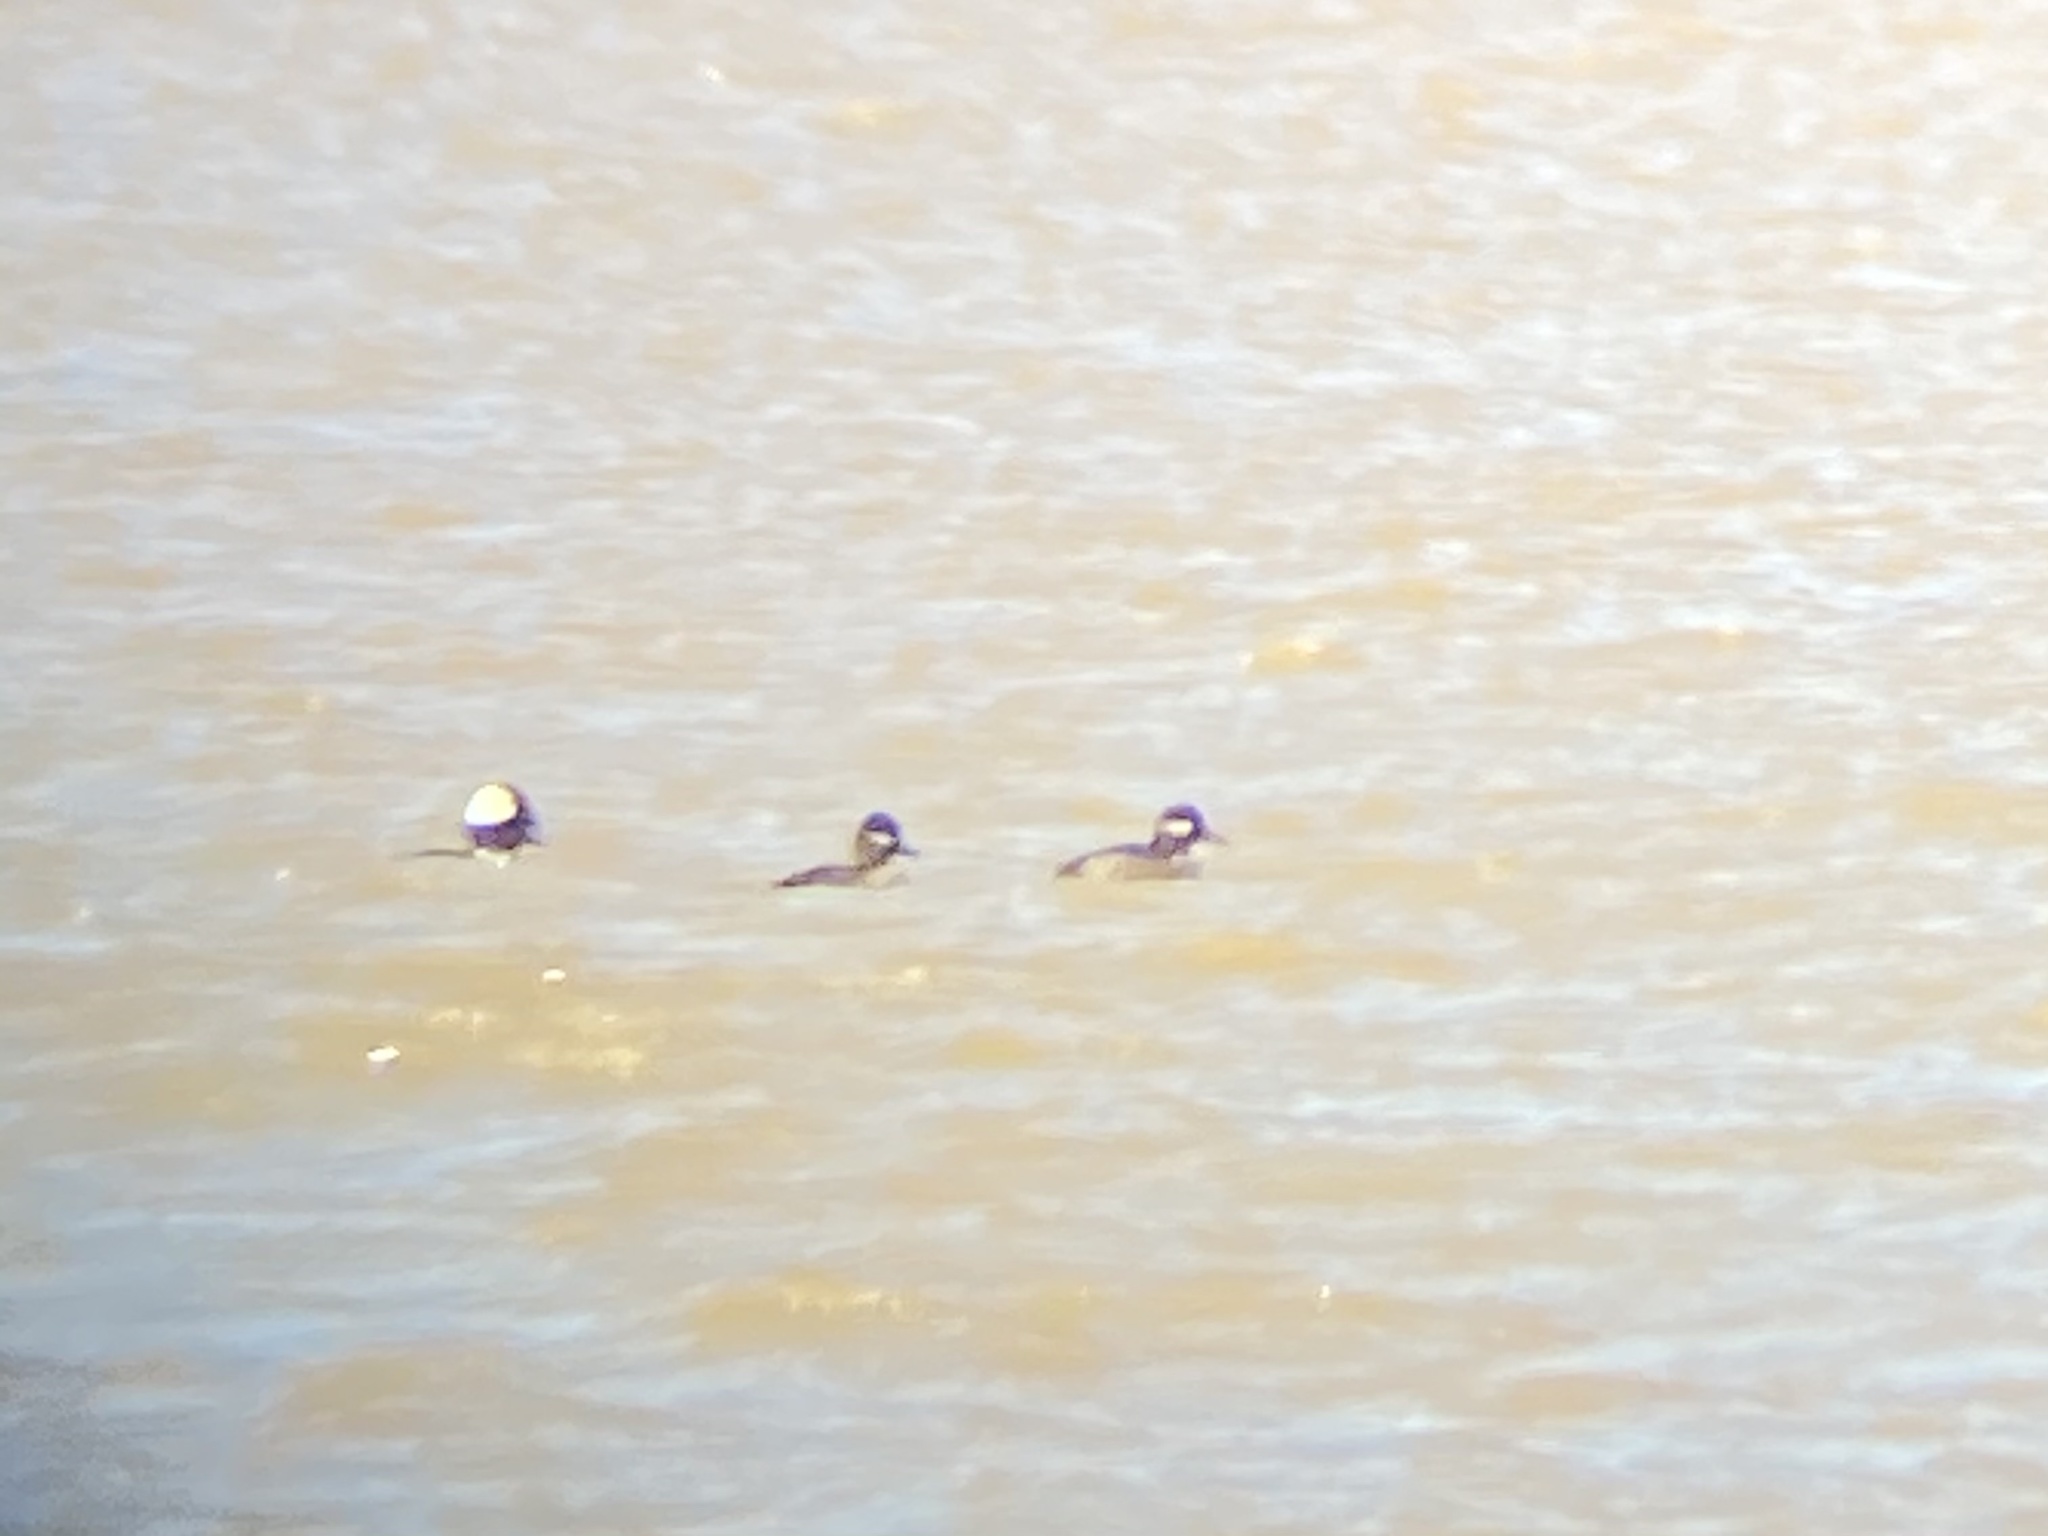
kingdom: Animalia
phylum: Chordata
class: Aves
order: Anseriformes
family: Anatidae
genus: Bucephala
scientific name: Bucephala albeola
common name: Bufflehead
